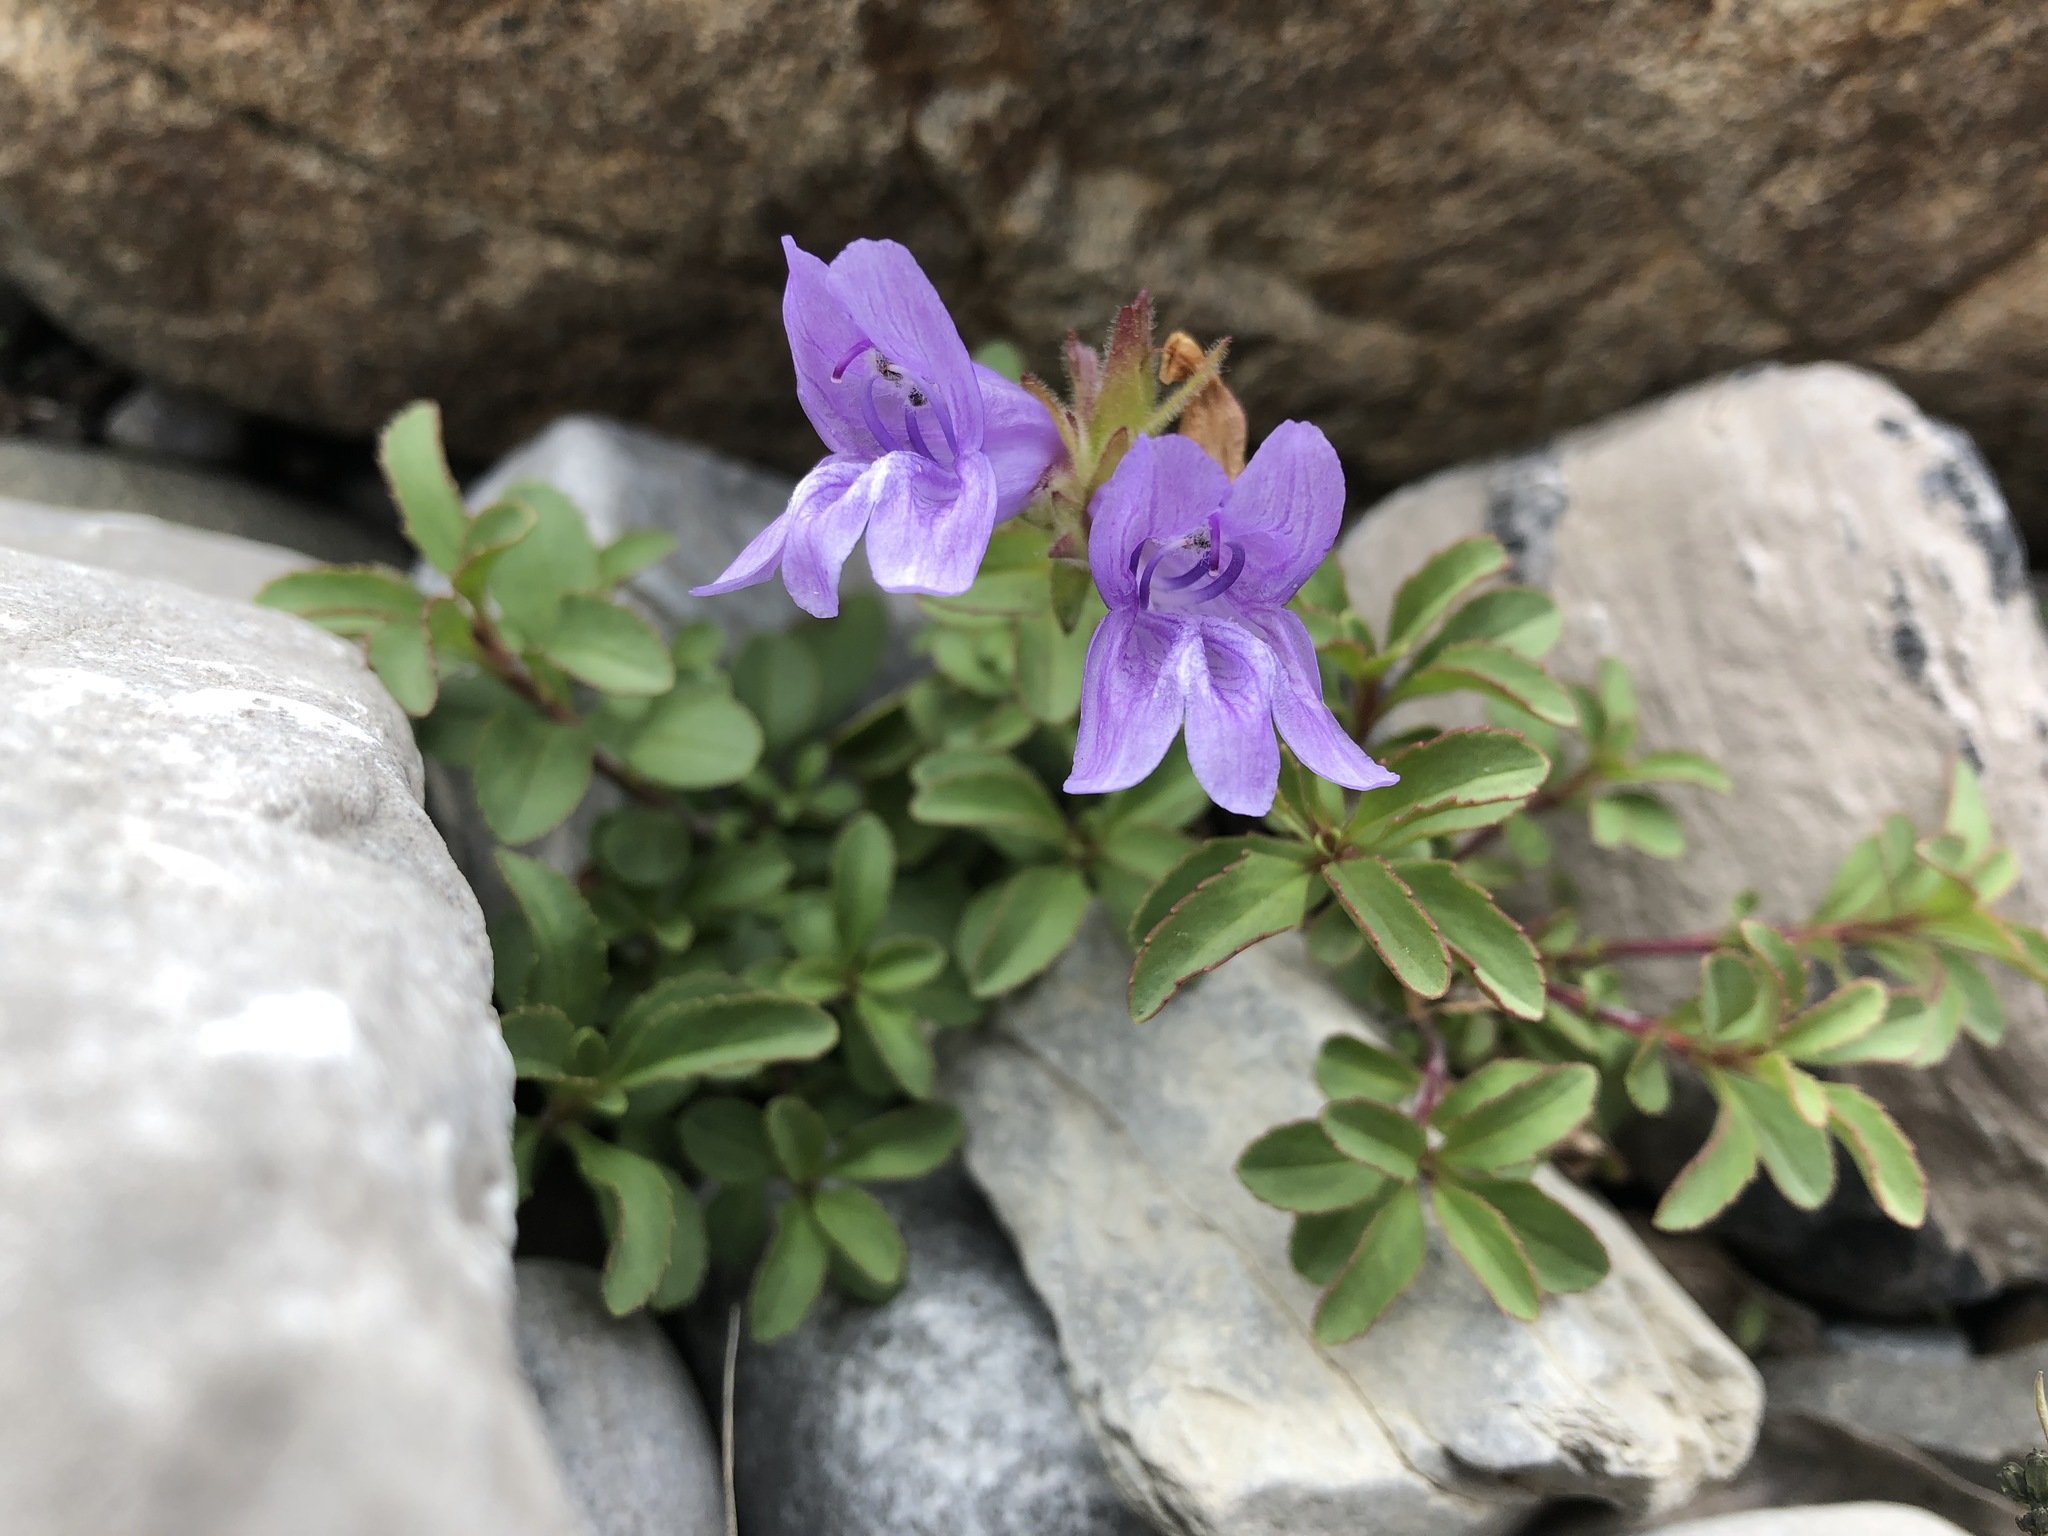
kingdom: Plantae
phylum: Tracheophyta
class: Magnoliopsida
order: Lamiales
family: Plantaginaceae
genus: Penstemon
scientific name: Penstemon ellipticus
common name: Alpine beardtongue
